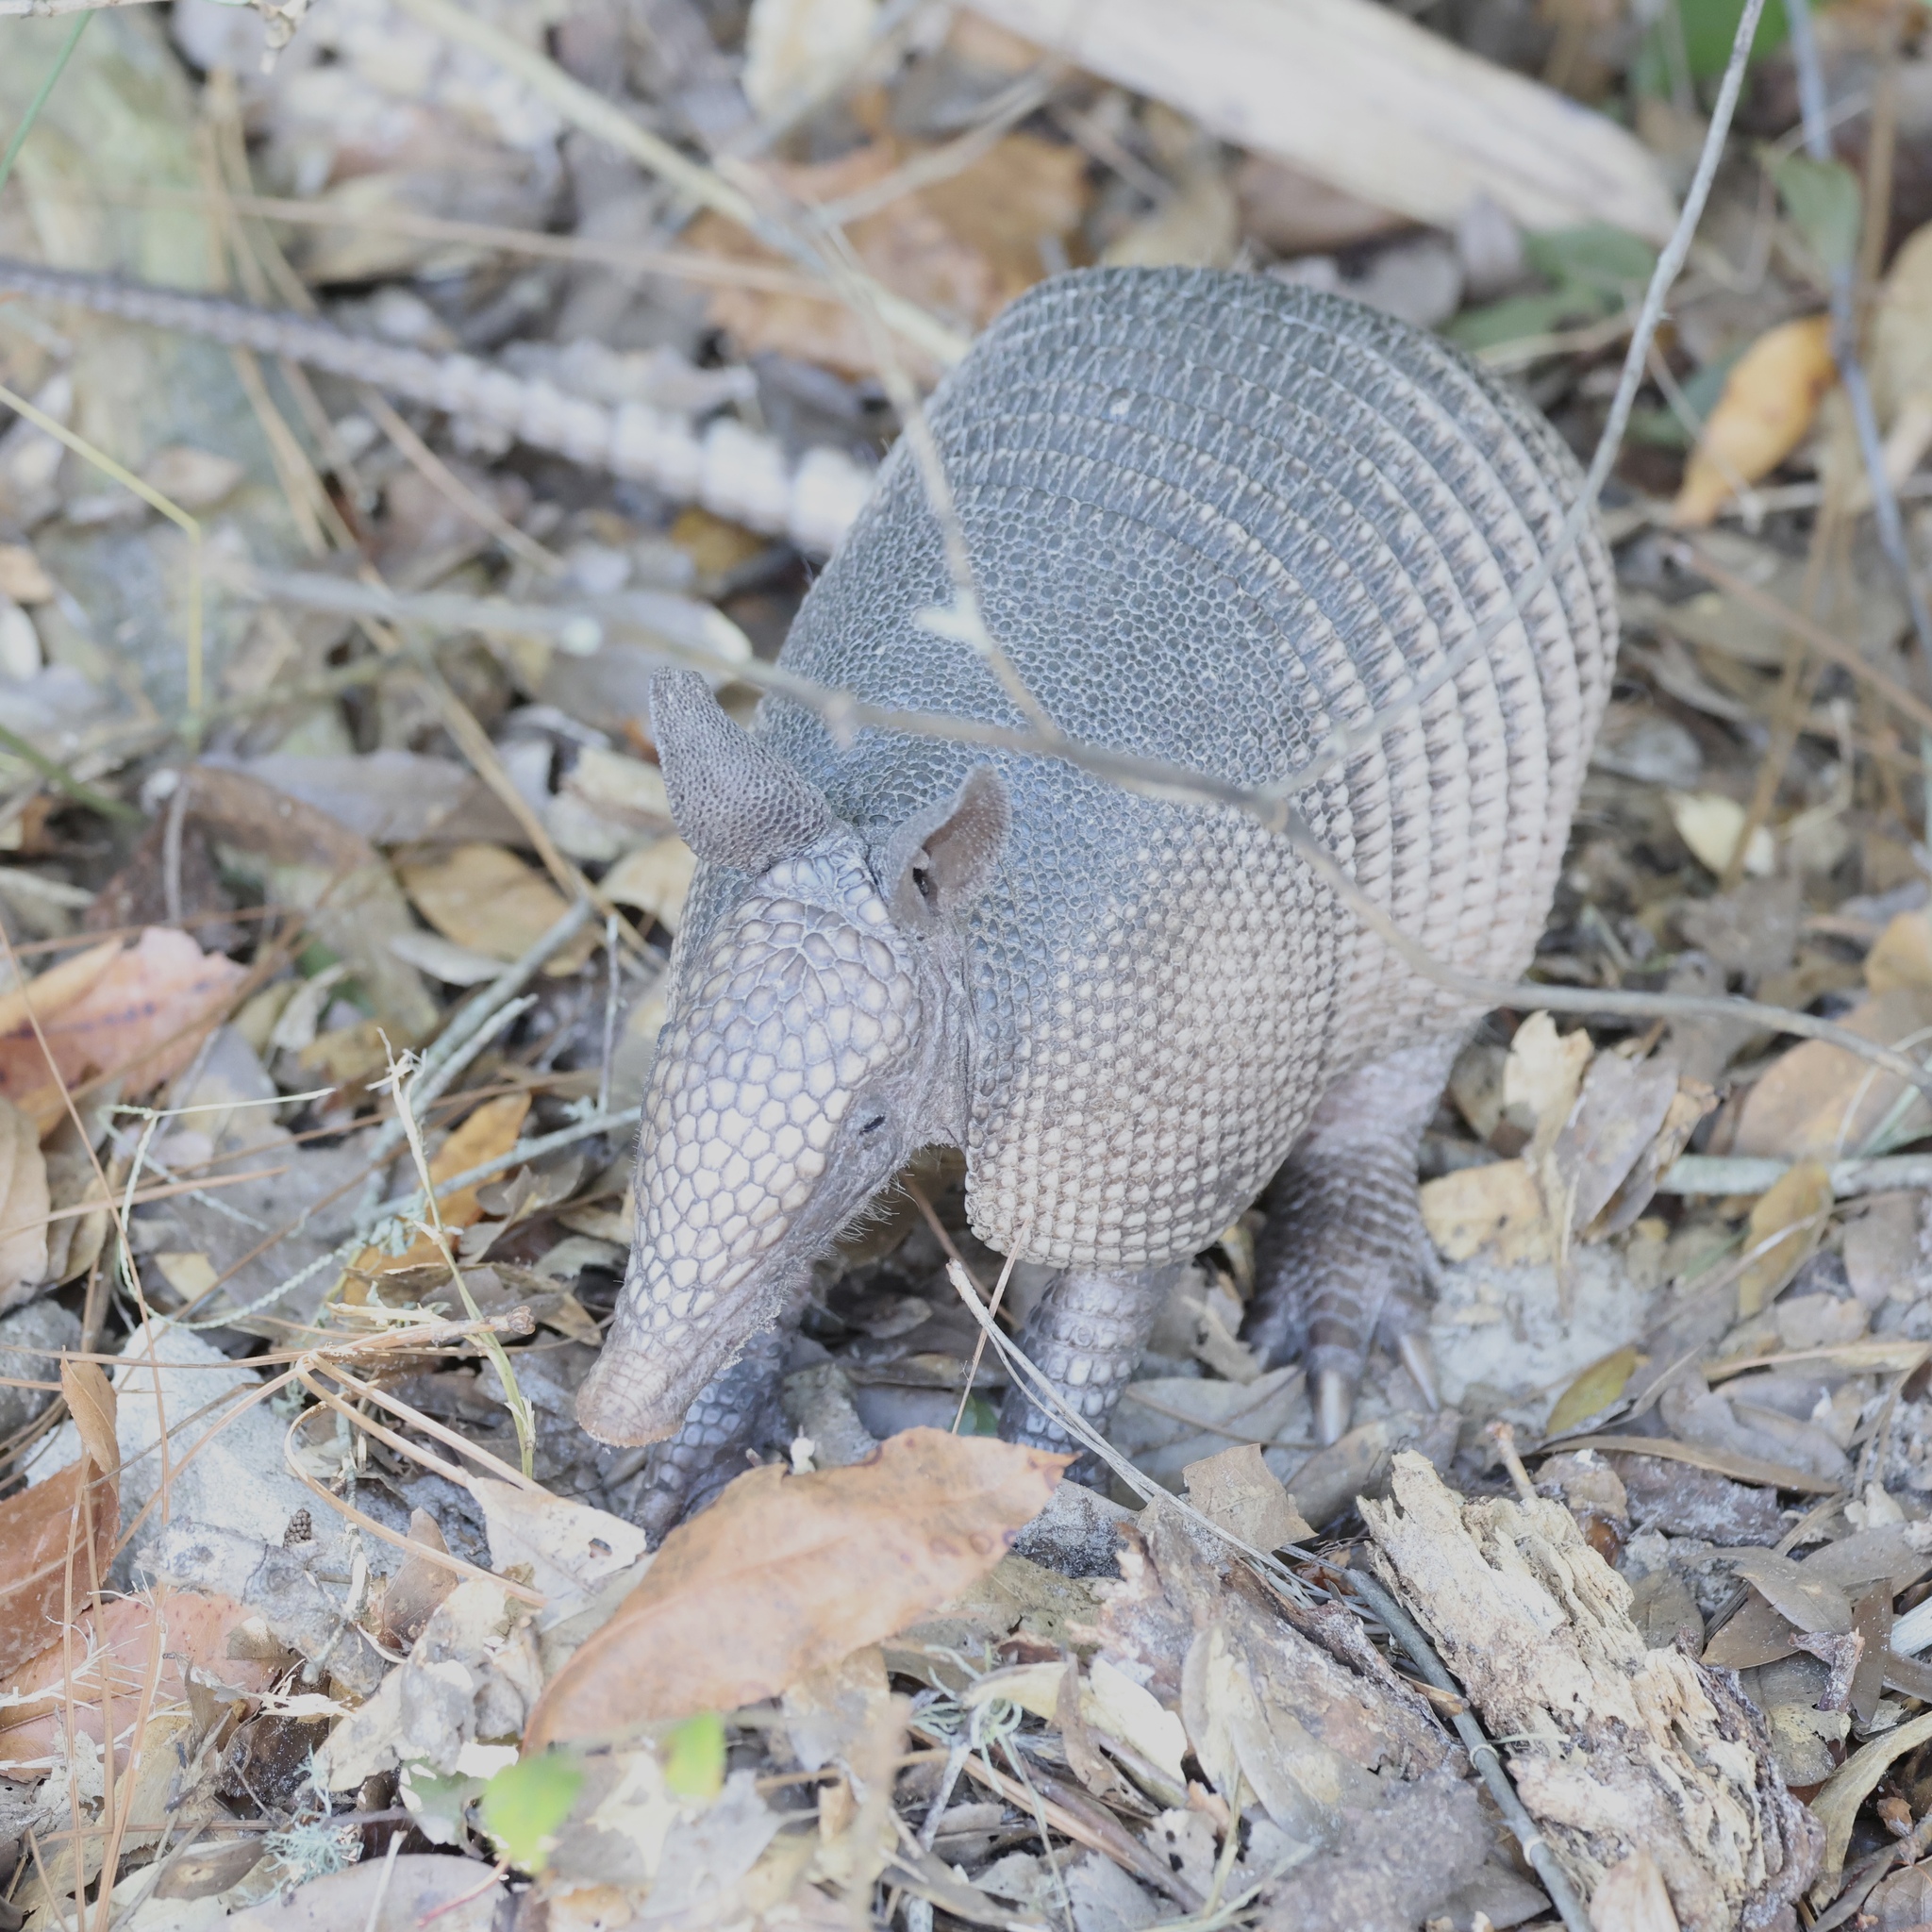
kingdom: Animalia
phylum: Chordata
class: Mammalia
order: Cingulata
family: Dasypodidae
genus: Dasypus
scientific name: Dasypus novemcinctus
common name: Nine-banded armadillo
